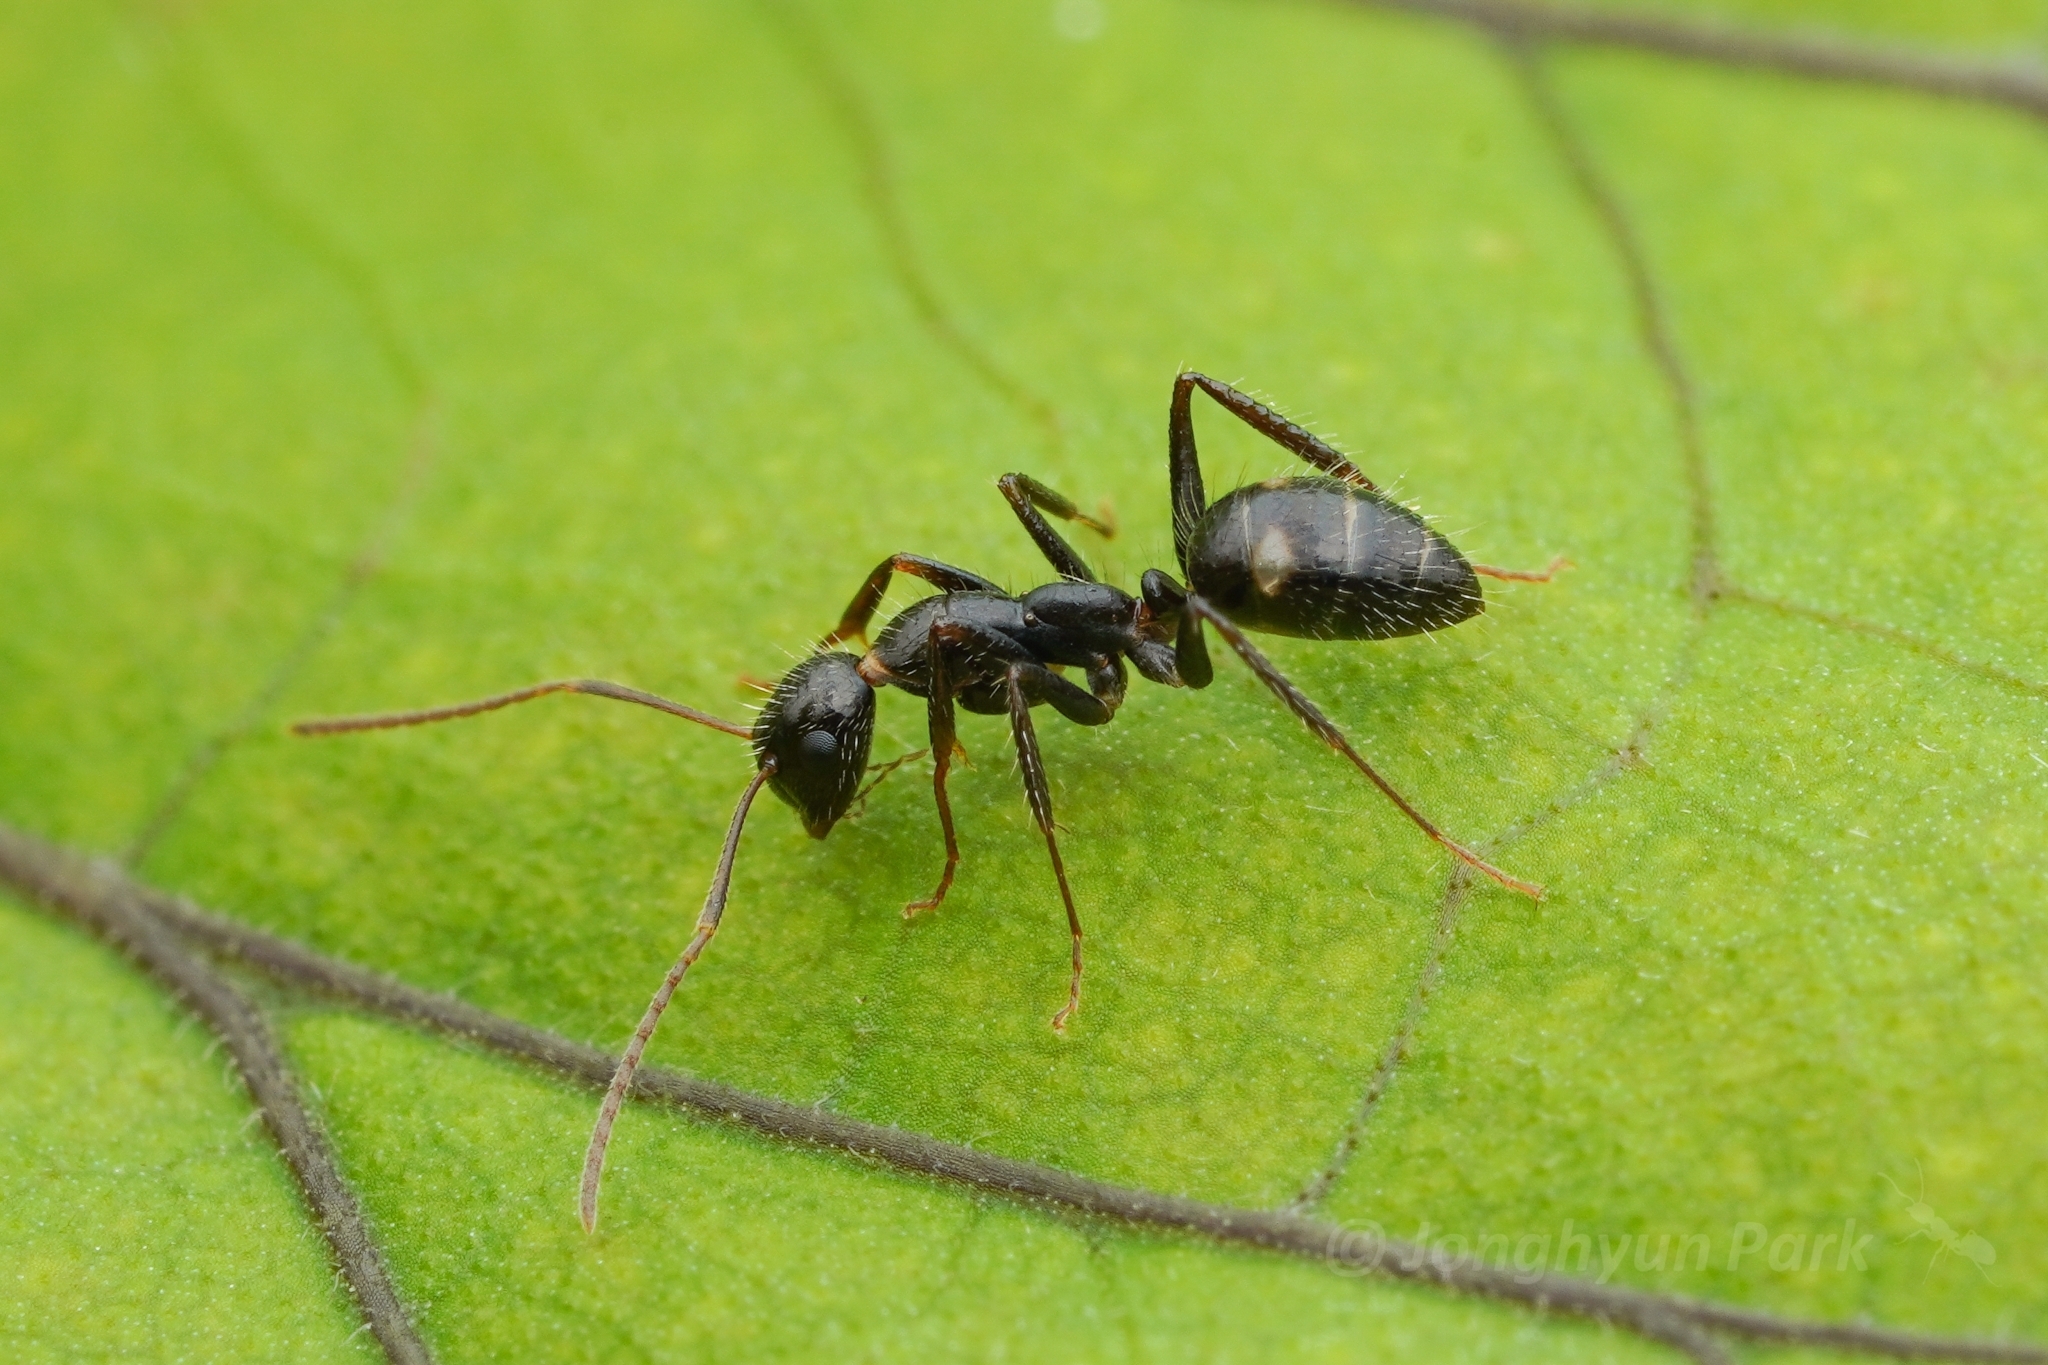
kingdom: Animalia
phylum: Arthropoda
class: Insecta
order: Hymenoptera
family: Formicidae
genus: Camponotus
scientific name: Camponotus sexguttatus
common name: Neotropical carpenter ant
